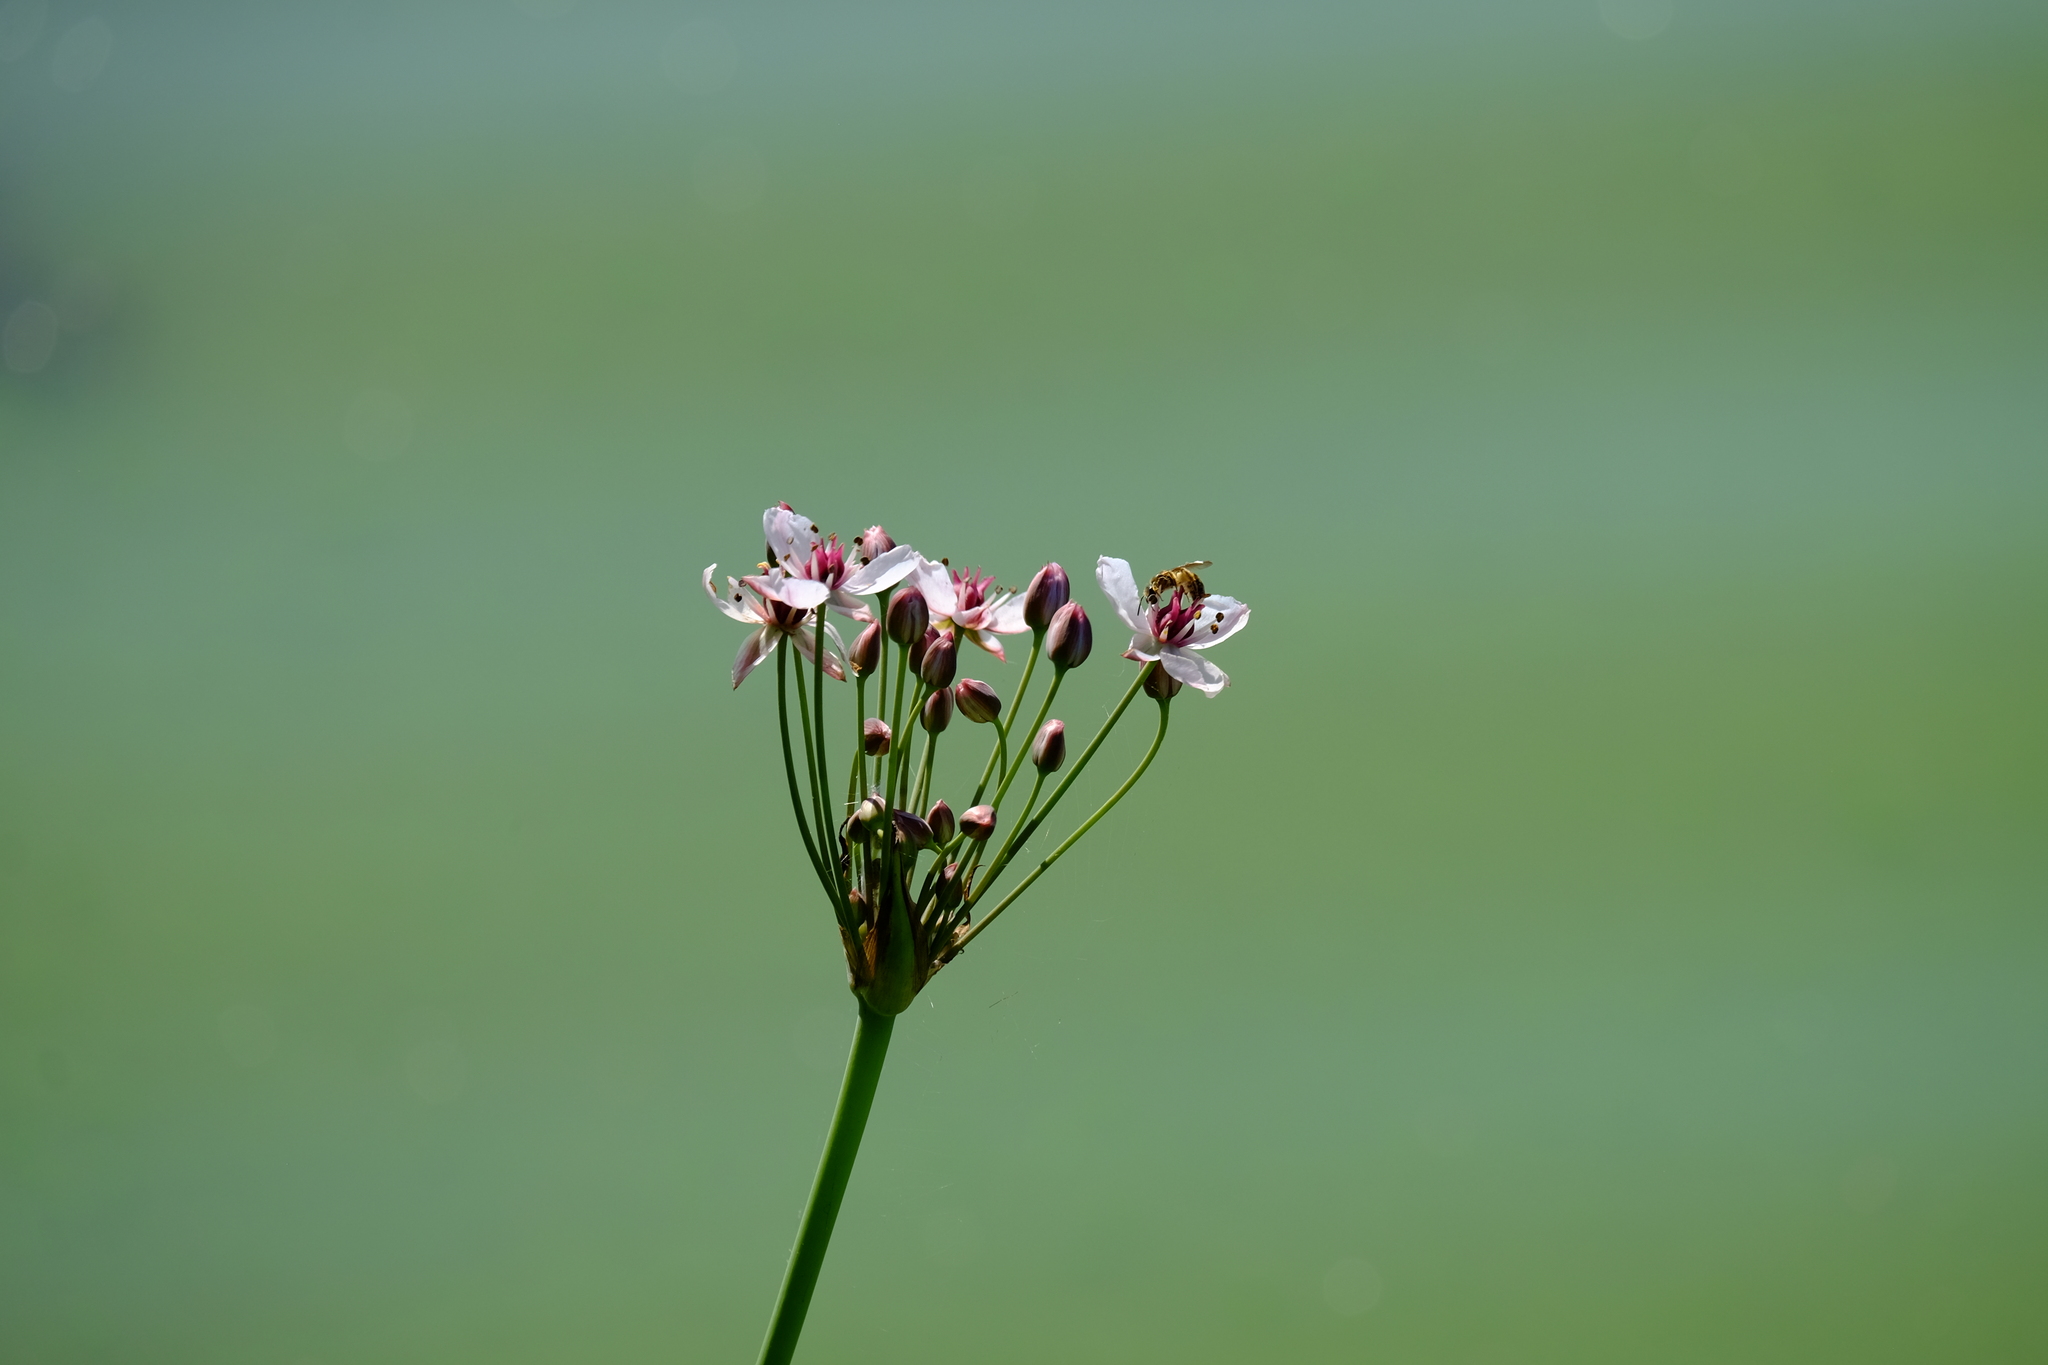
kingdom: Plantae
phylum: Tracheophyta
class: Liliopsida
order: Alismatales
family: Butomaceae
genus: Butomus
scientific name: Butomus umbellatus
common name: Flowering-rush
